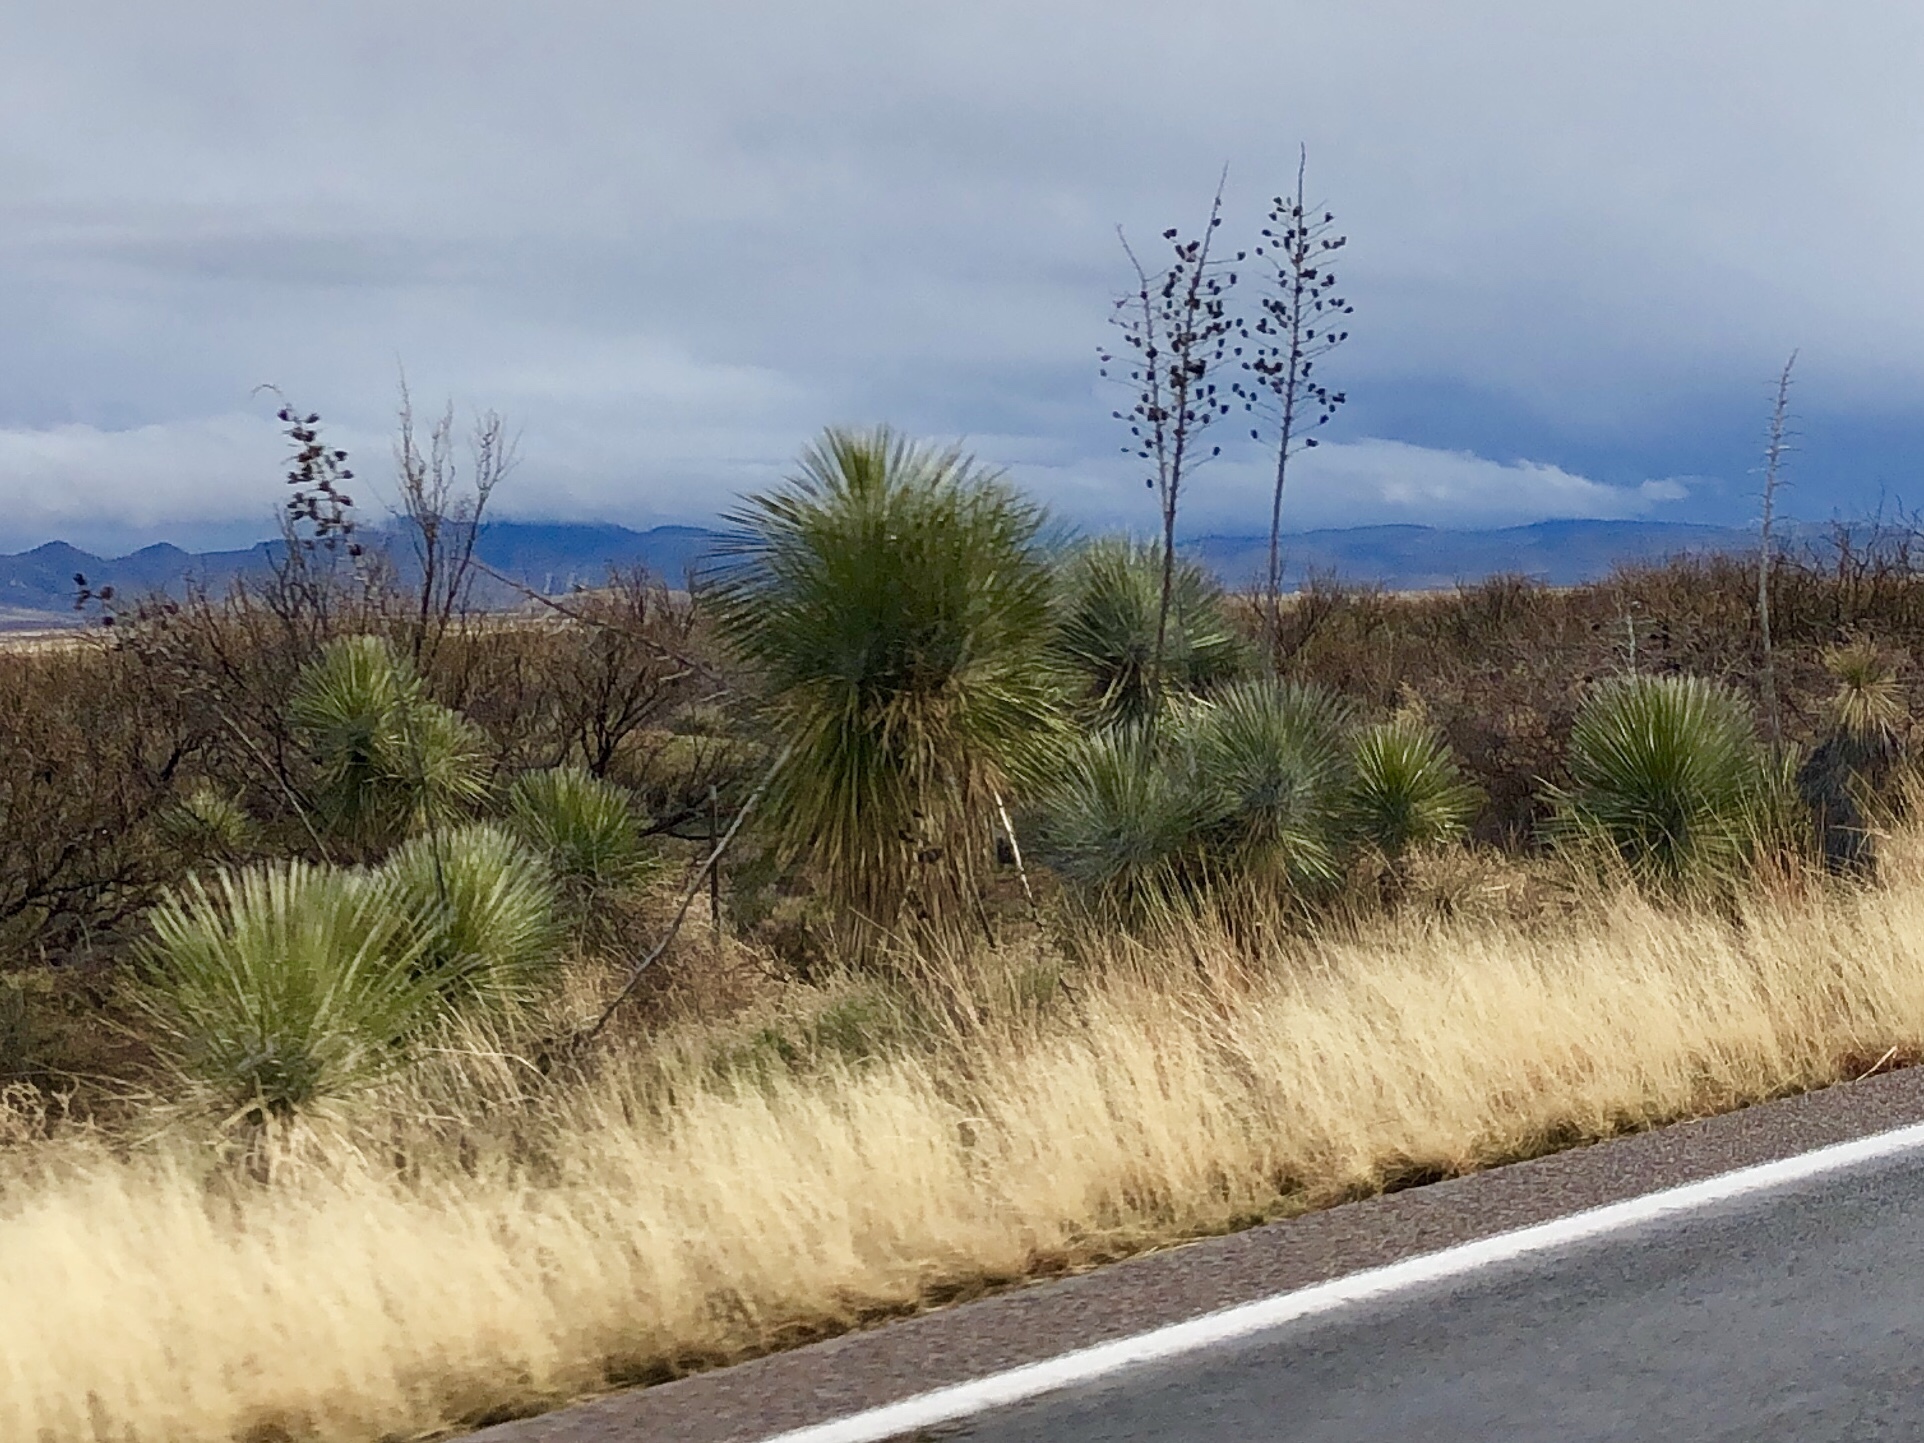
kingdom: Plantae
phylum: Tracheophyta
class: Liliopsida
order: Asparagales
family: Asparagaceae
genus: Yucca
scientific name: Yucca elata
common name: Palmella
